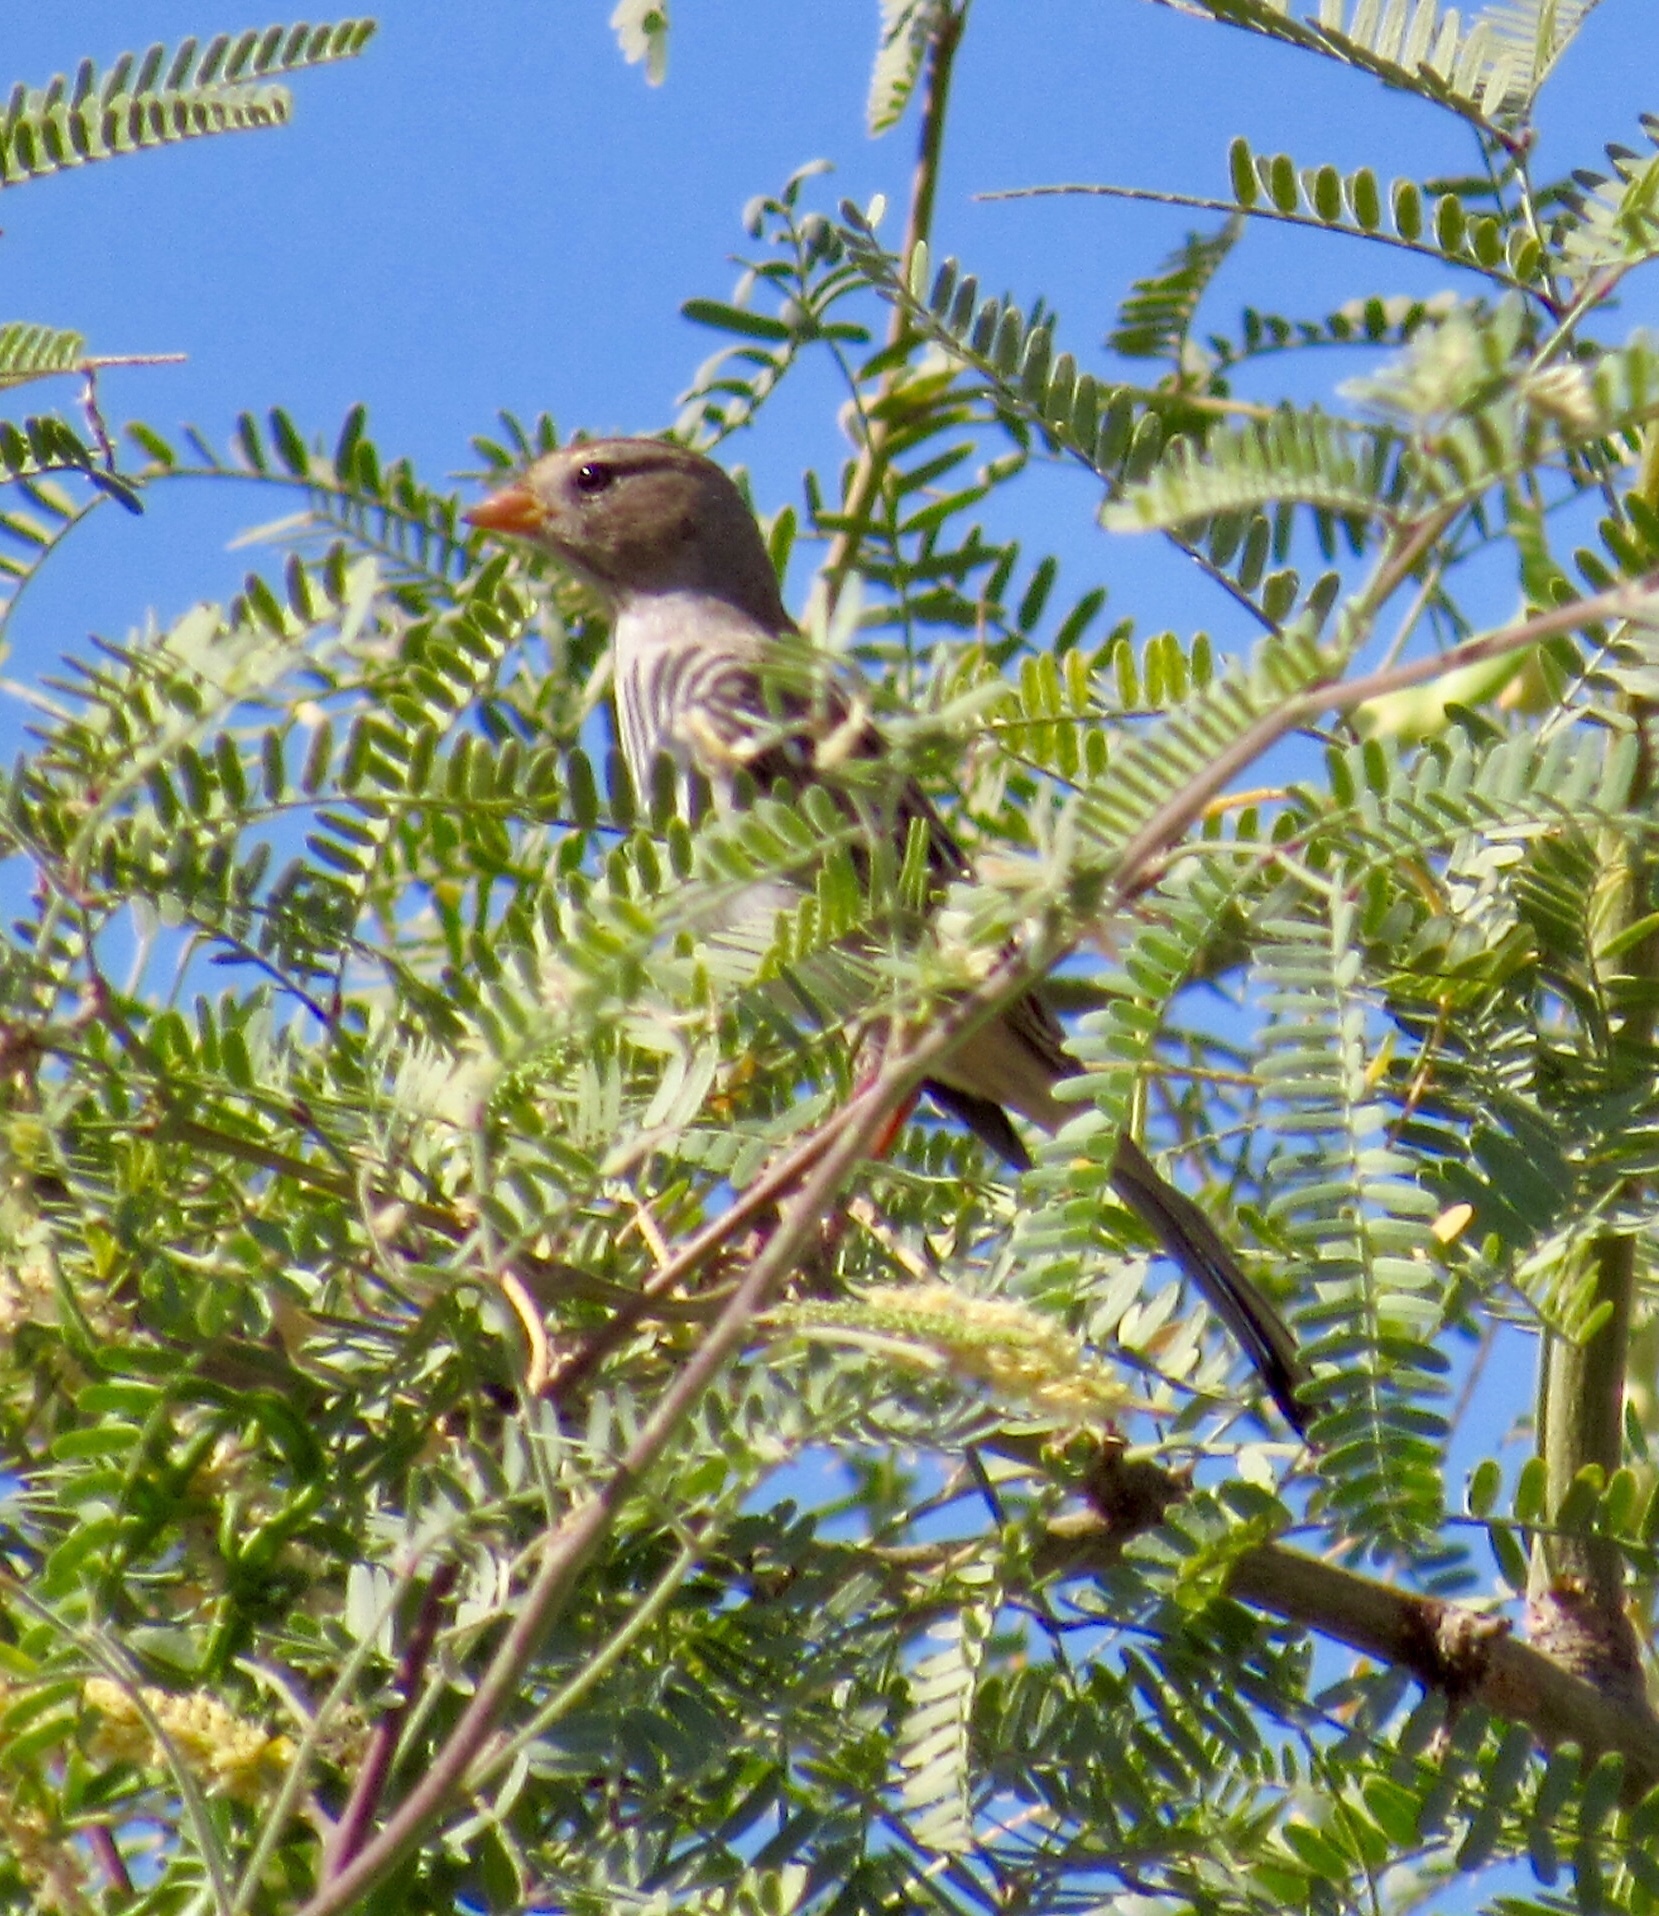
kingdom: Animalia
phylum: Chordata
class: Aves
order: Passeriformes
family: Passerellidae
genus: Zonotrichia
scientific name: Zonotrichia leucophrys
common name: White-crowned sparrow
